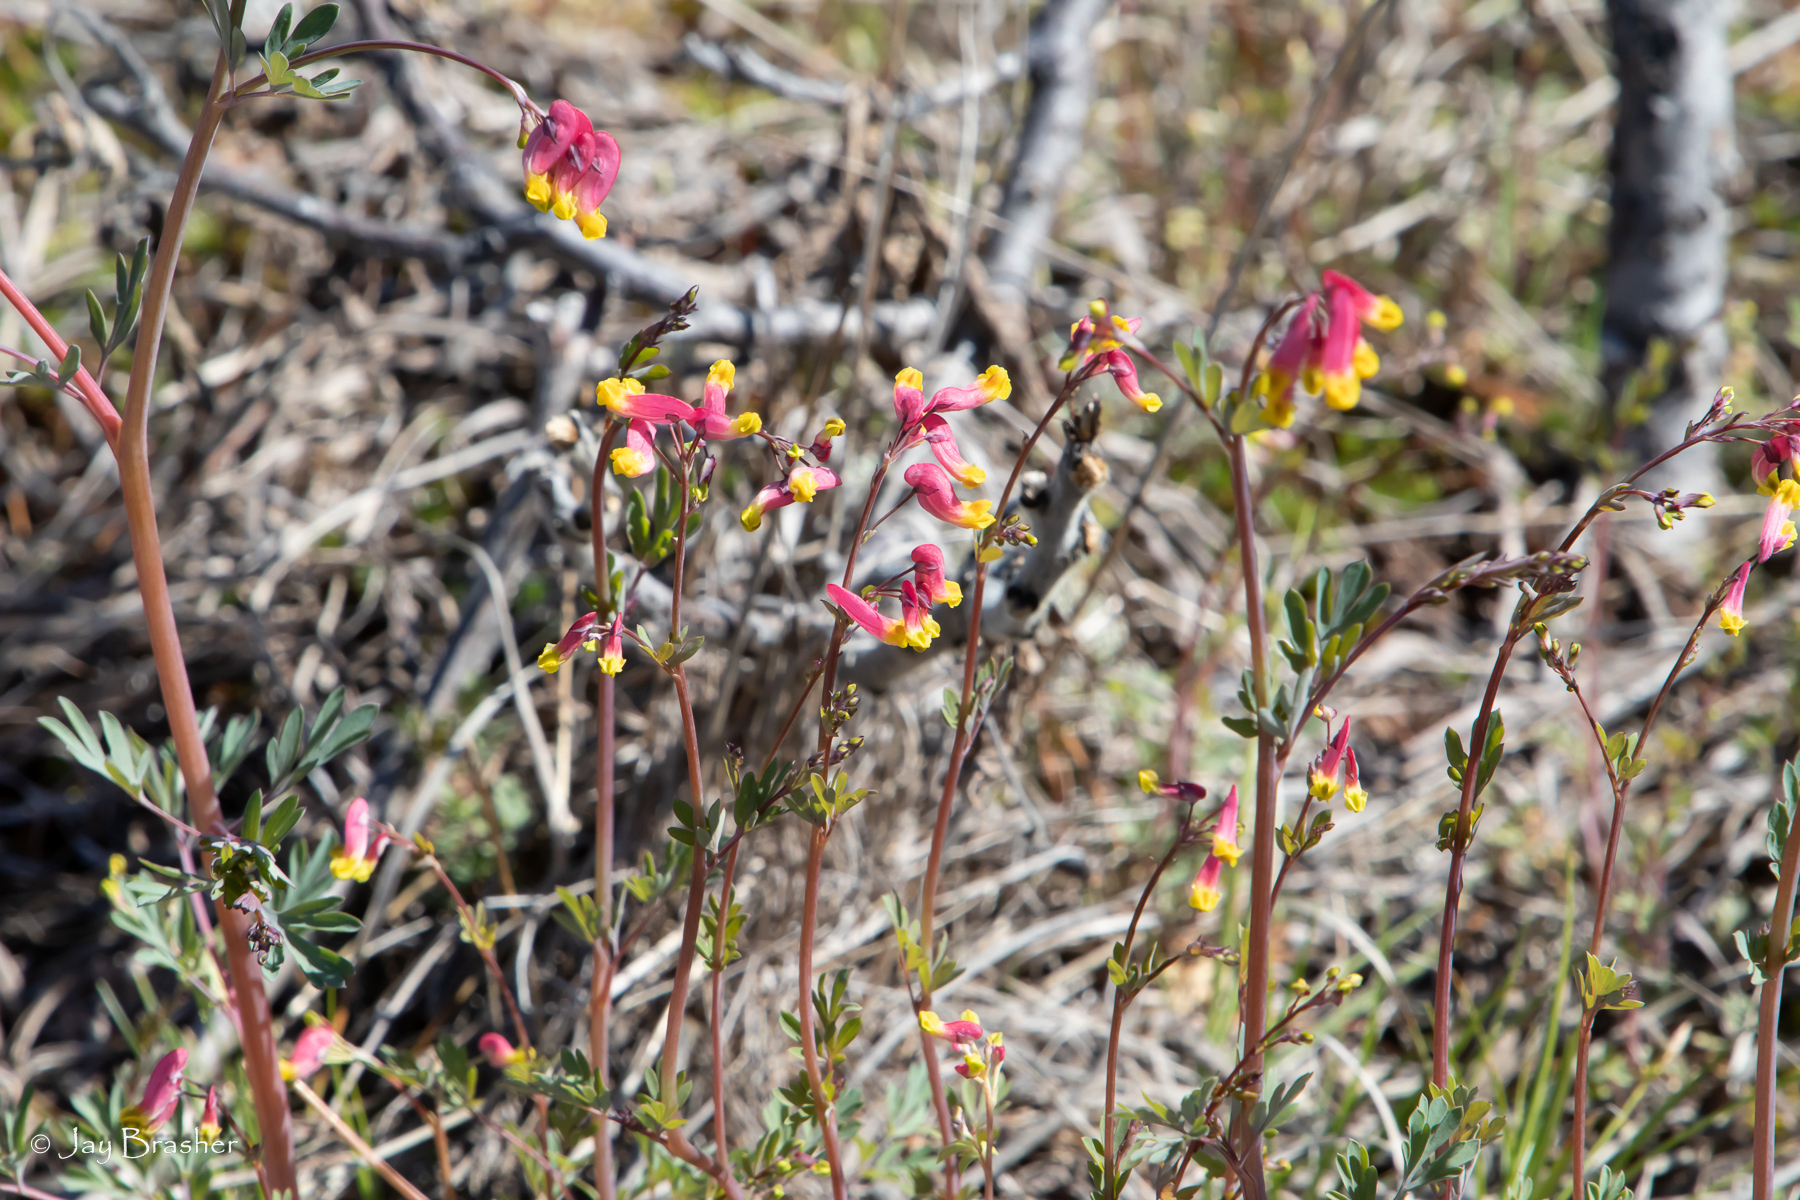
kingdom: Plantae
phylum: Tracheophyta
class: Magnoliopsida
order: Ranunculales
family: Papaveraceae
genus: Capnoides
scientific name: Capnoides sempervirens
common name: Rock harlequin
